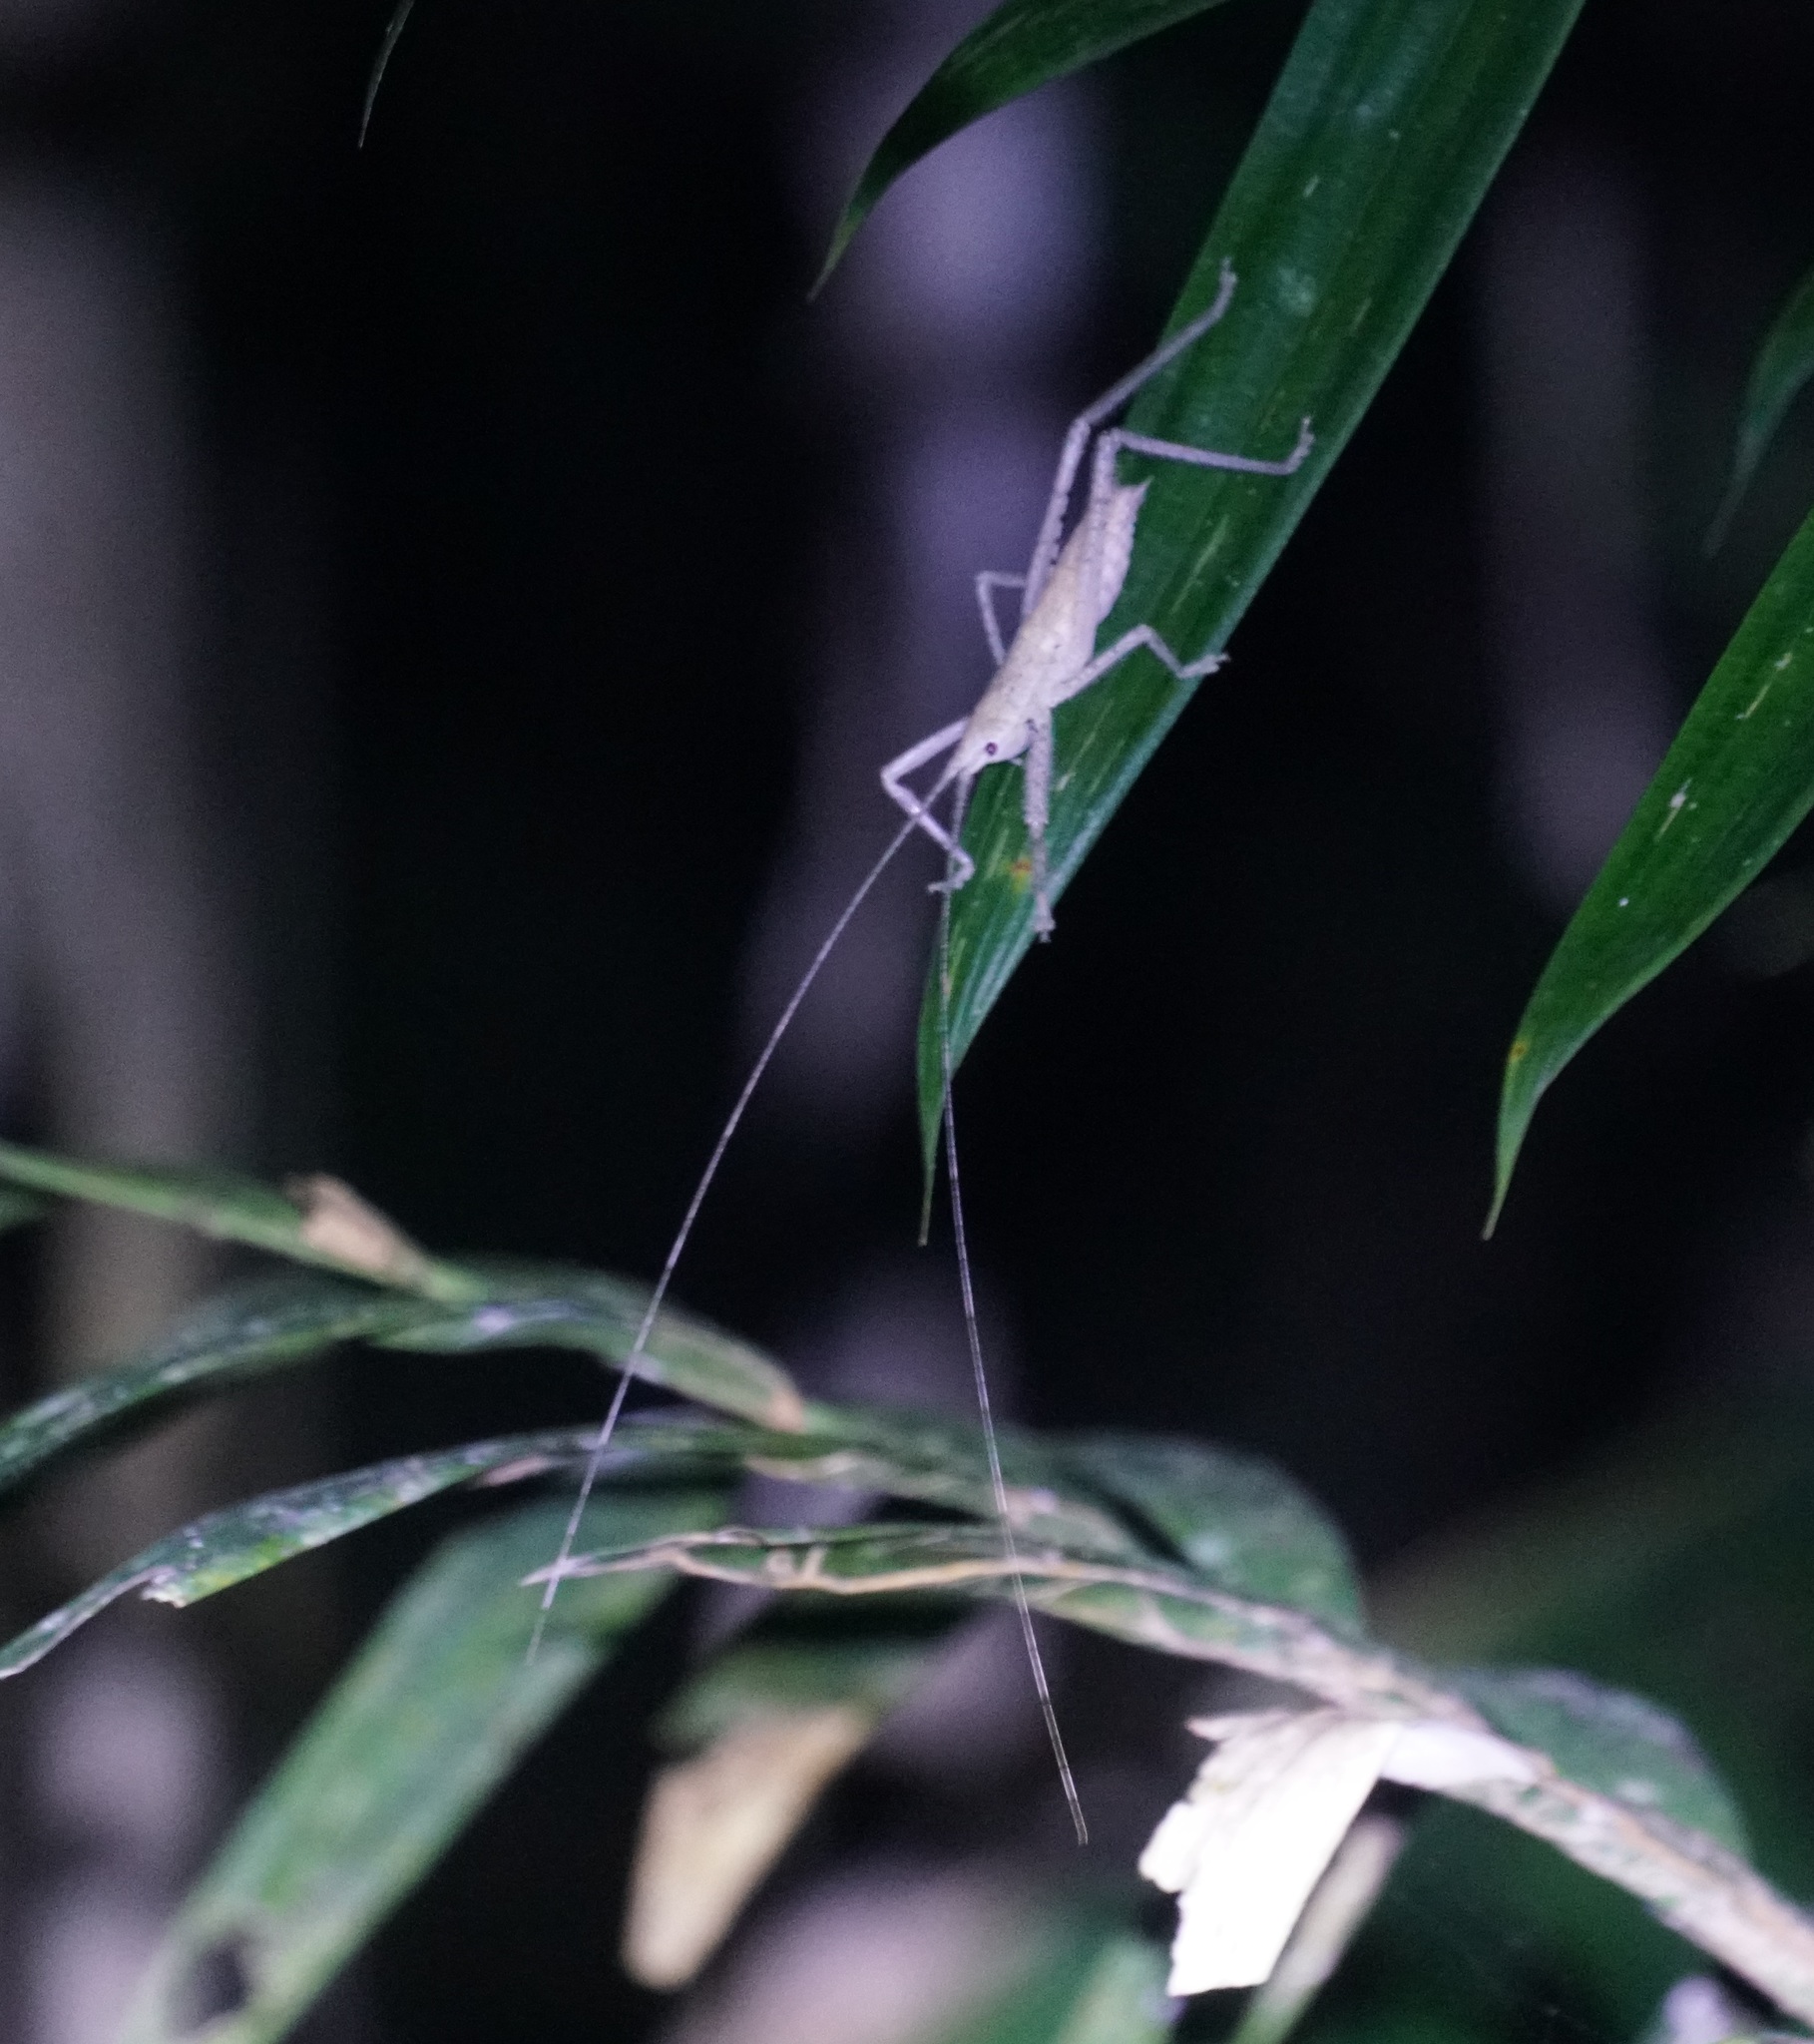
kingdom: Animalia
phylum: Arthropoda
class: Insecta
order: Orthoptera
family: Tettigoniidae
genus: Segestidea
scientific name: Segestidea queenslandica
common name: Queensland palm katydid
